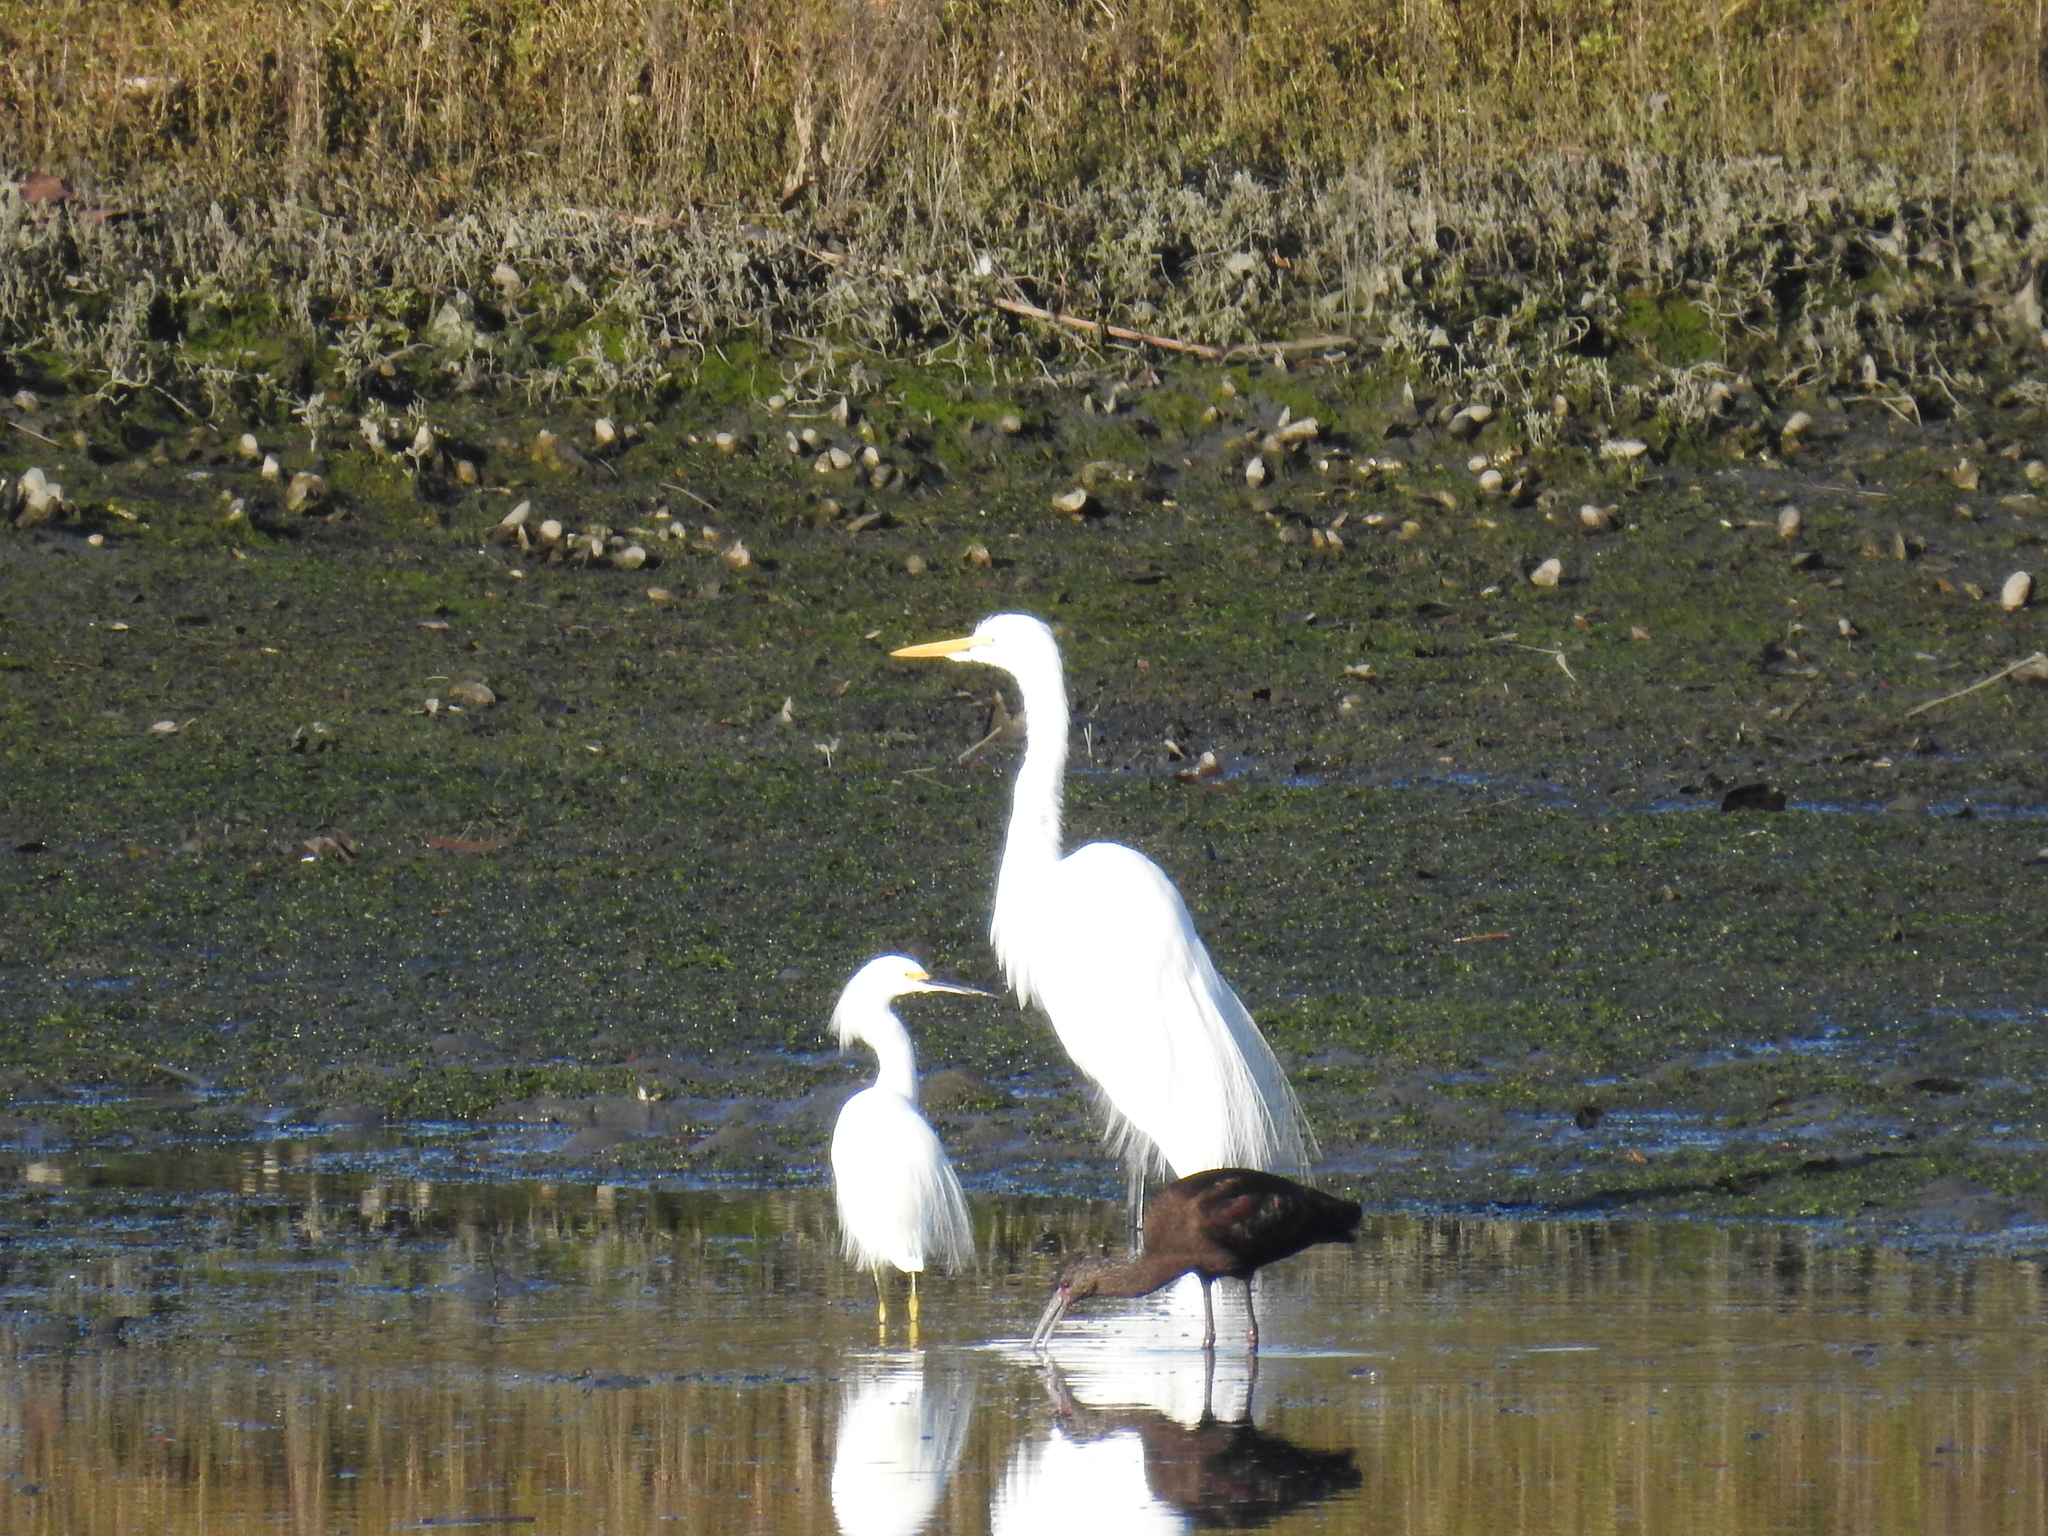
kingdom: Animalia
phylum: Chordata
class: Aves
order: Pelecaniformes
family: Threskiornithidae
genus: Plegadis
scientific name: Plegadis chihi
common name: White-faced ibis
